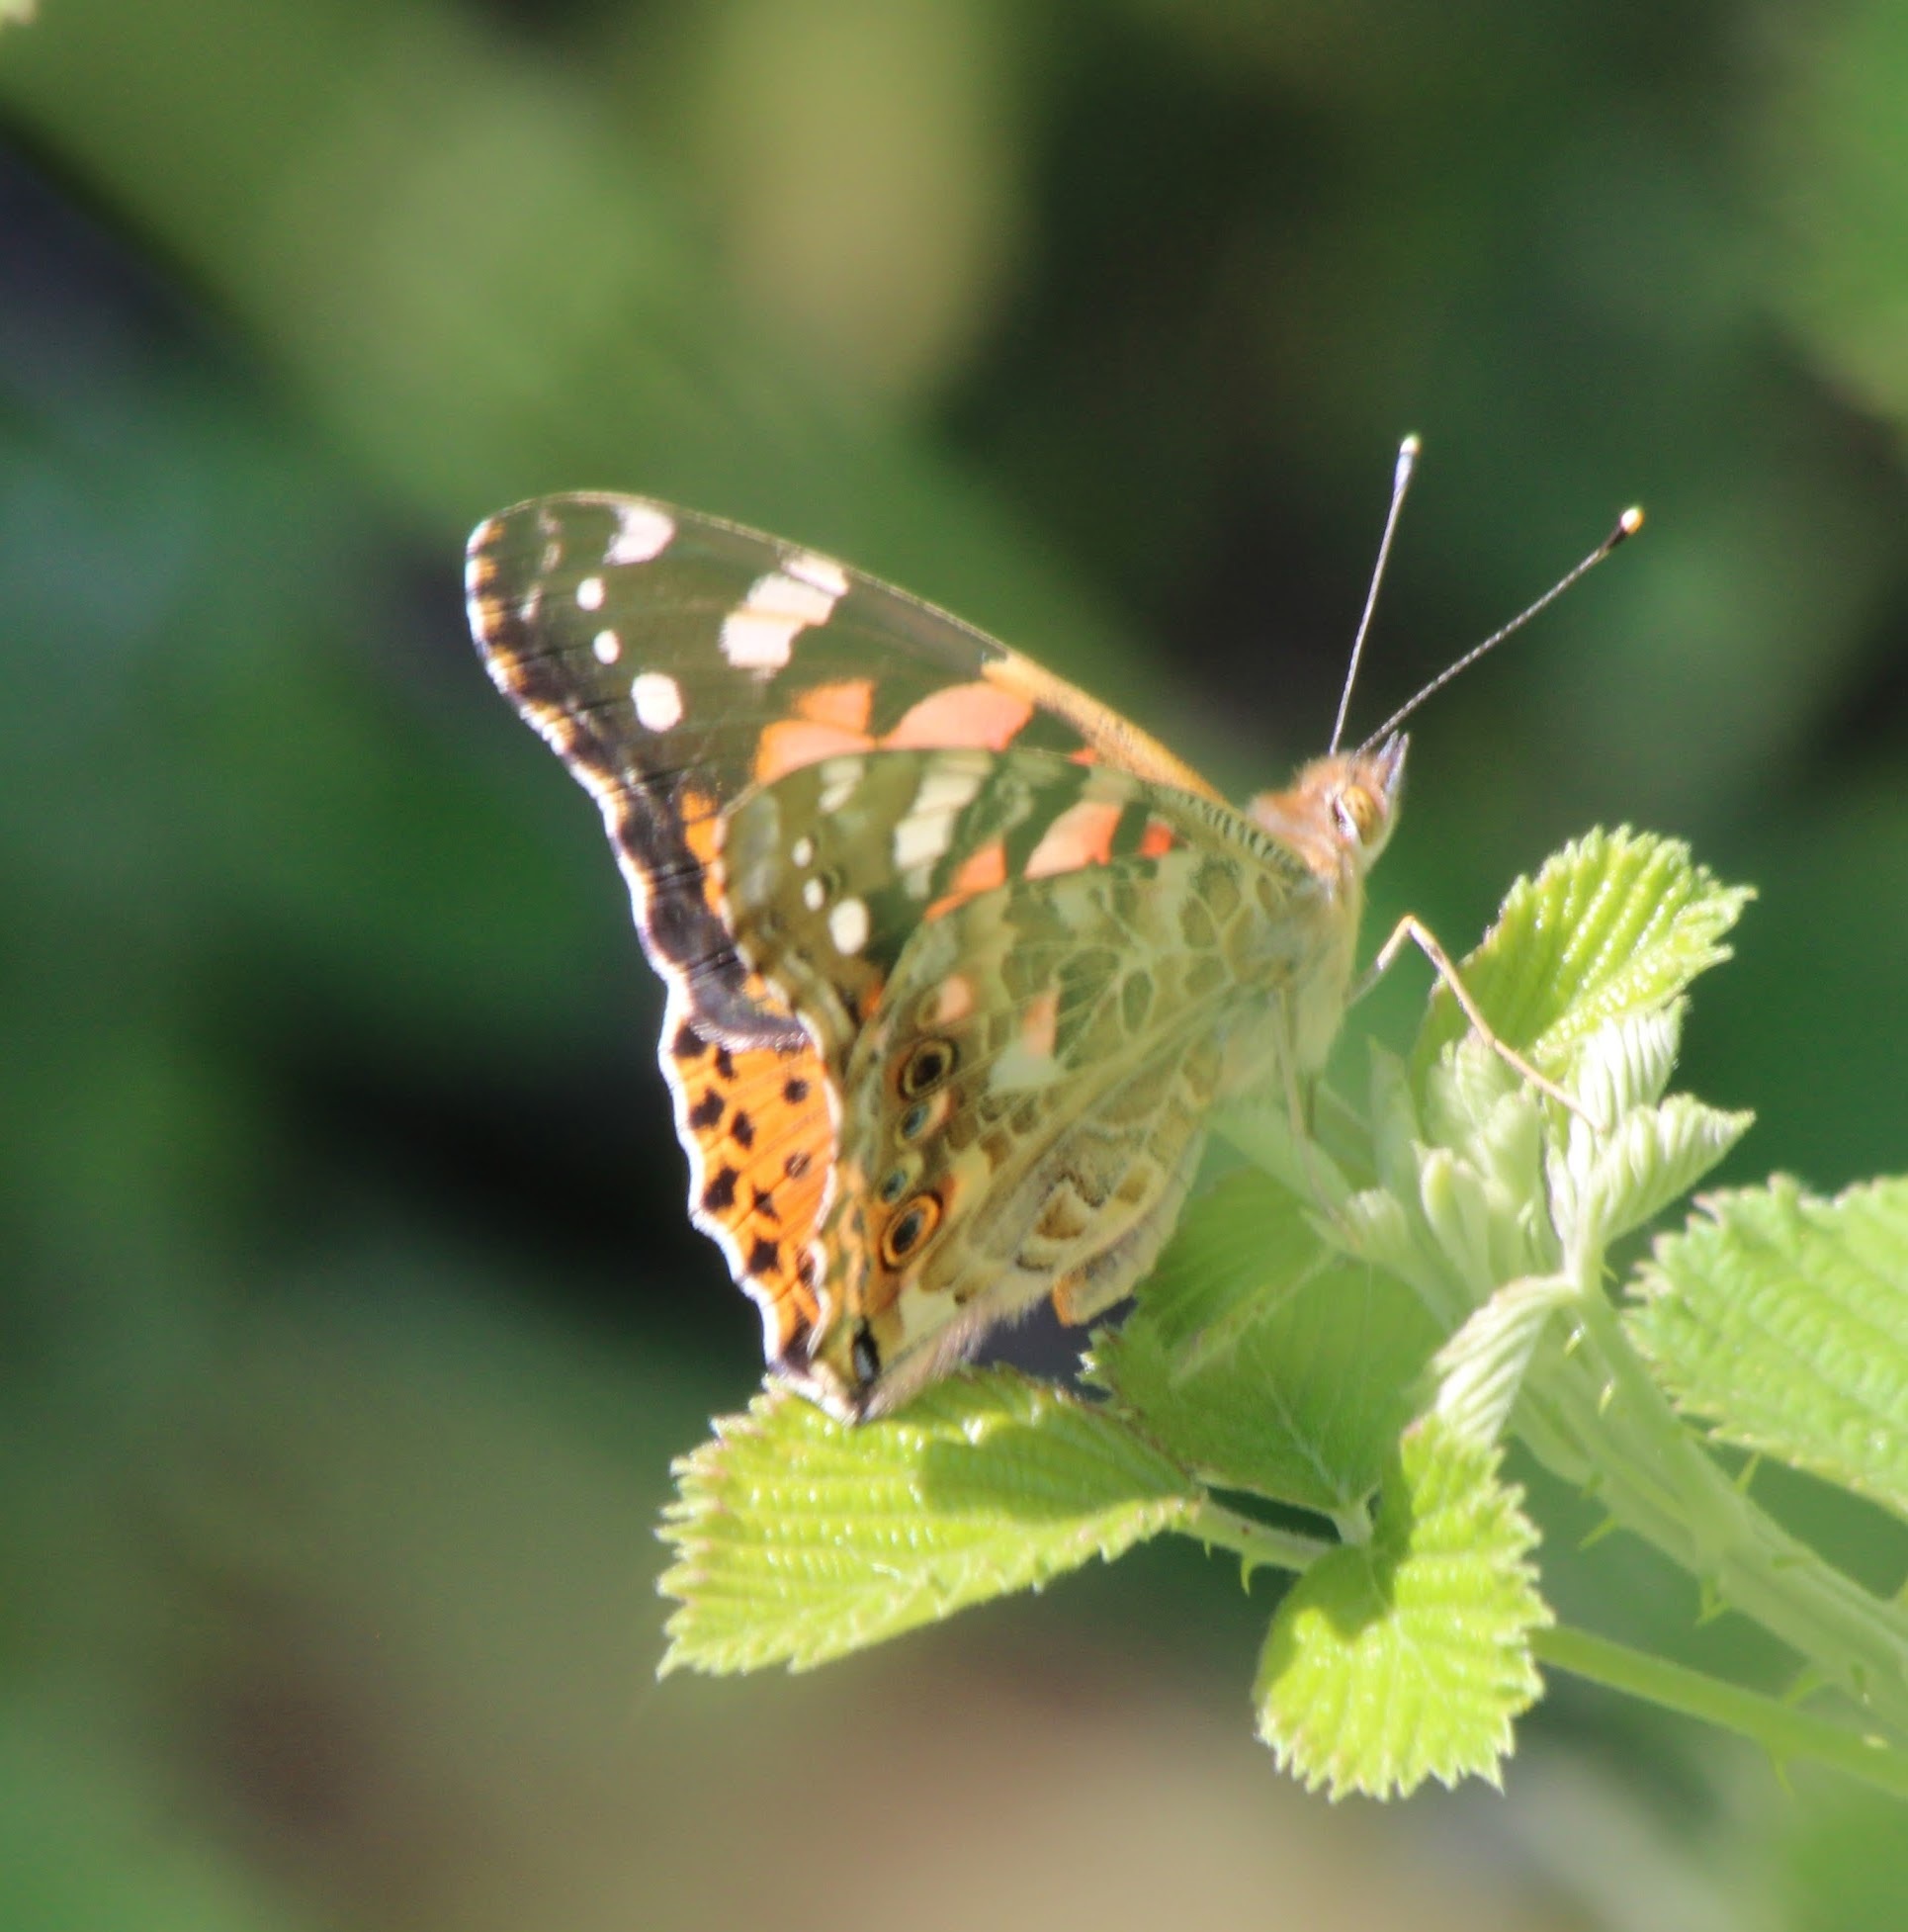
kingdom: Animalia
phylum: Arthropoda
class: Insecta
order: Lepidoptera
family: Nymphalidae
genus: Vanessa
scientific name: Vanessa cardui
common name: Painted lady
